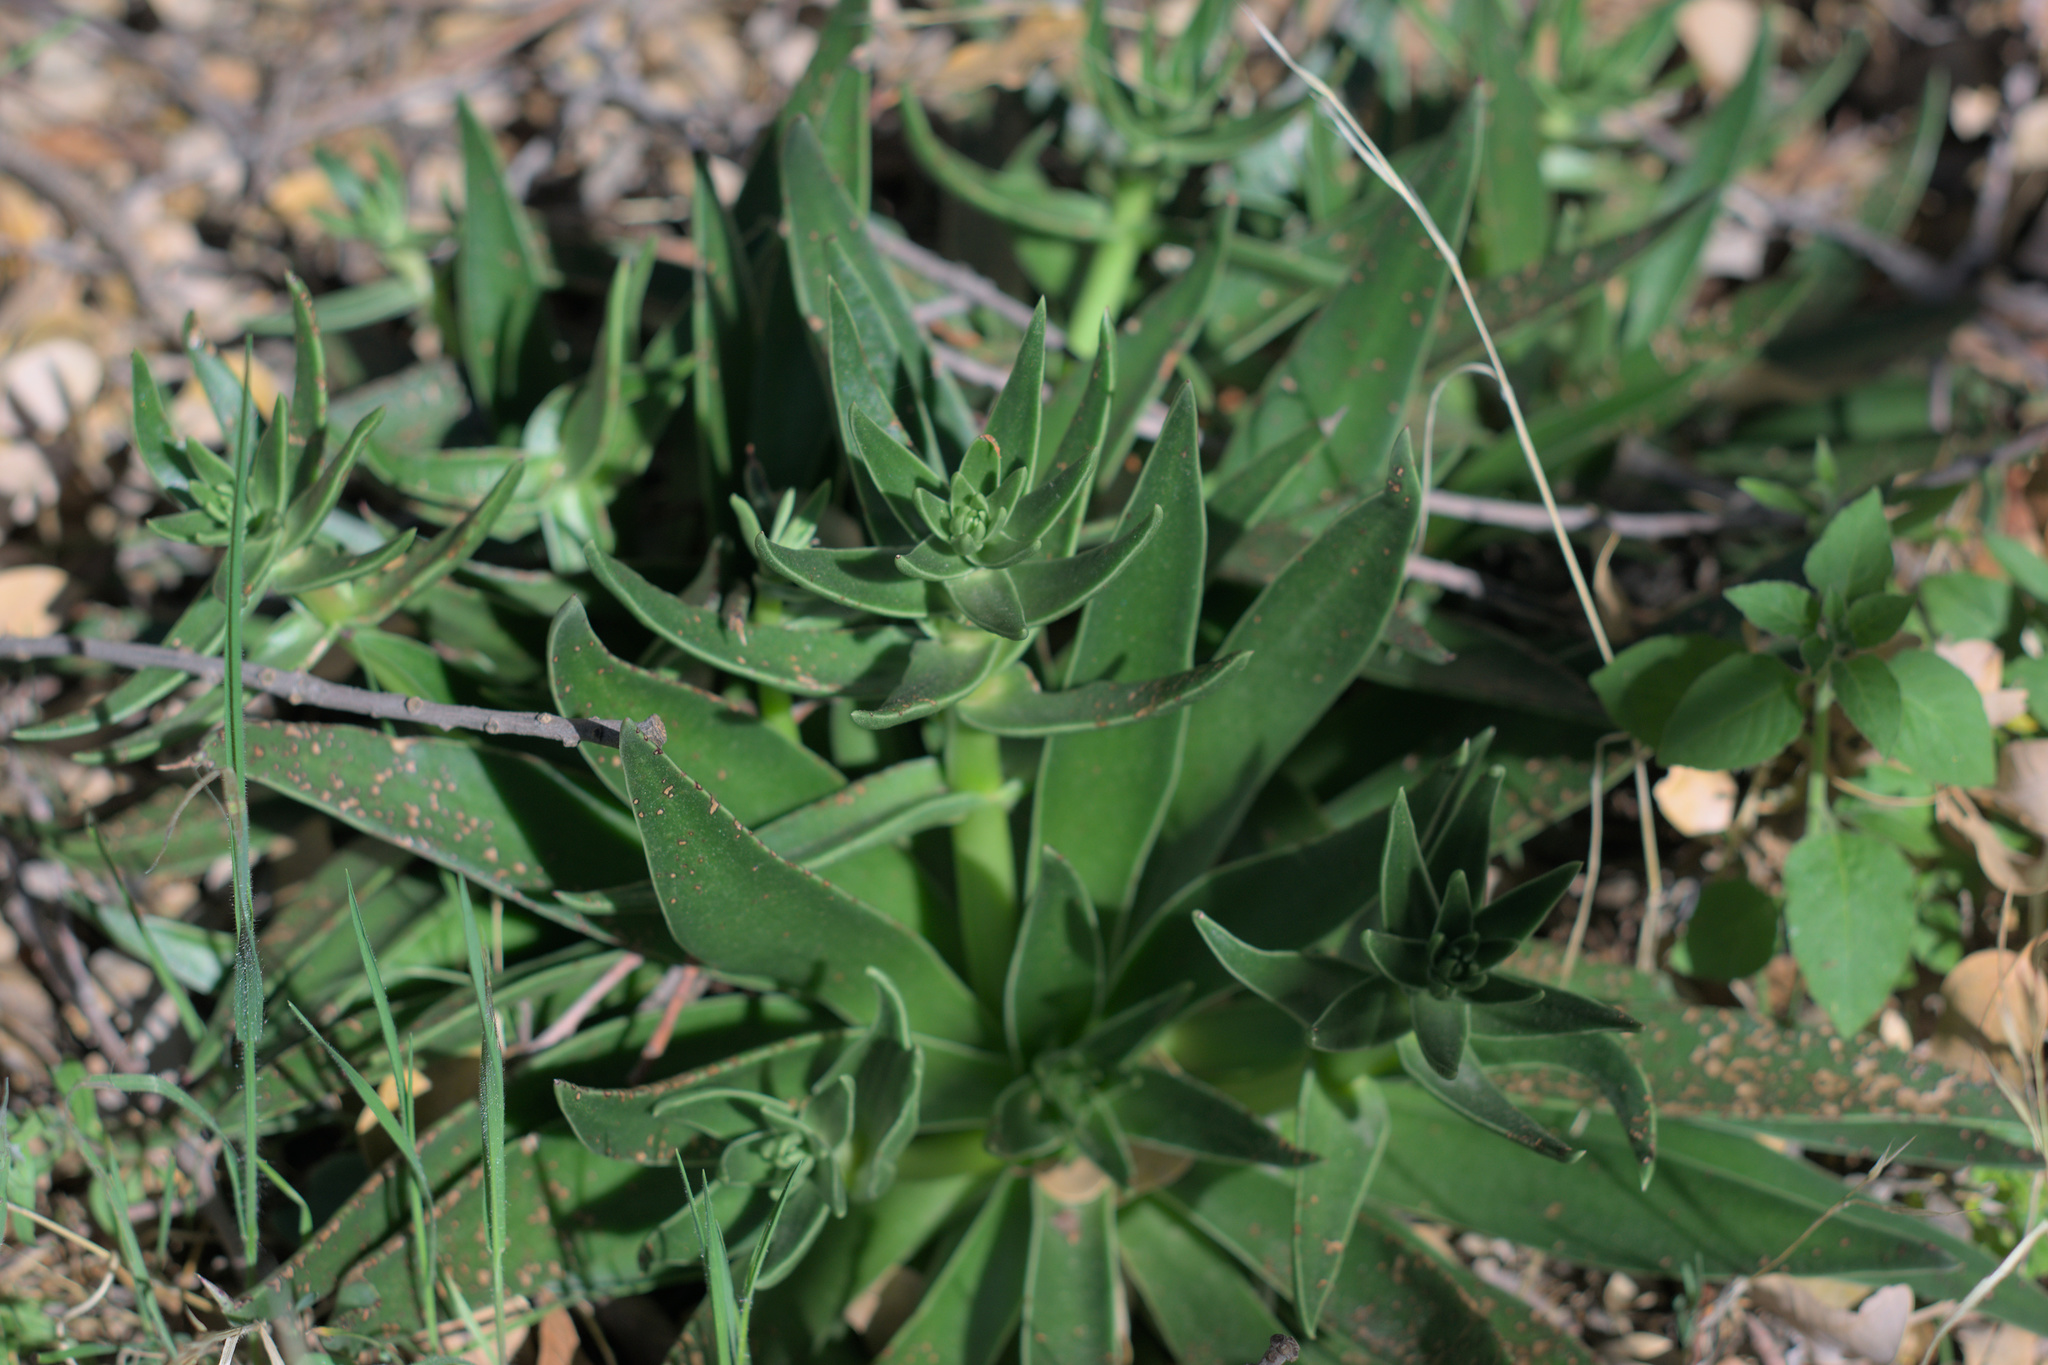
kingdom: Plantae
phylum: Tracheophyta
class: Magnoliopsida
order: Saxifragales
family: Crassulaceae
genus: Dudleya
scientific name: Dudleya lanceolata
